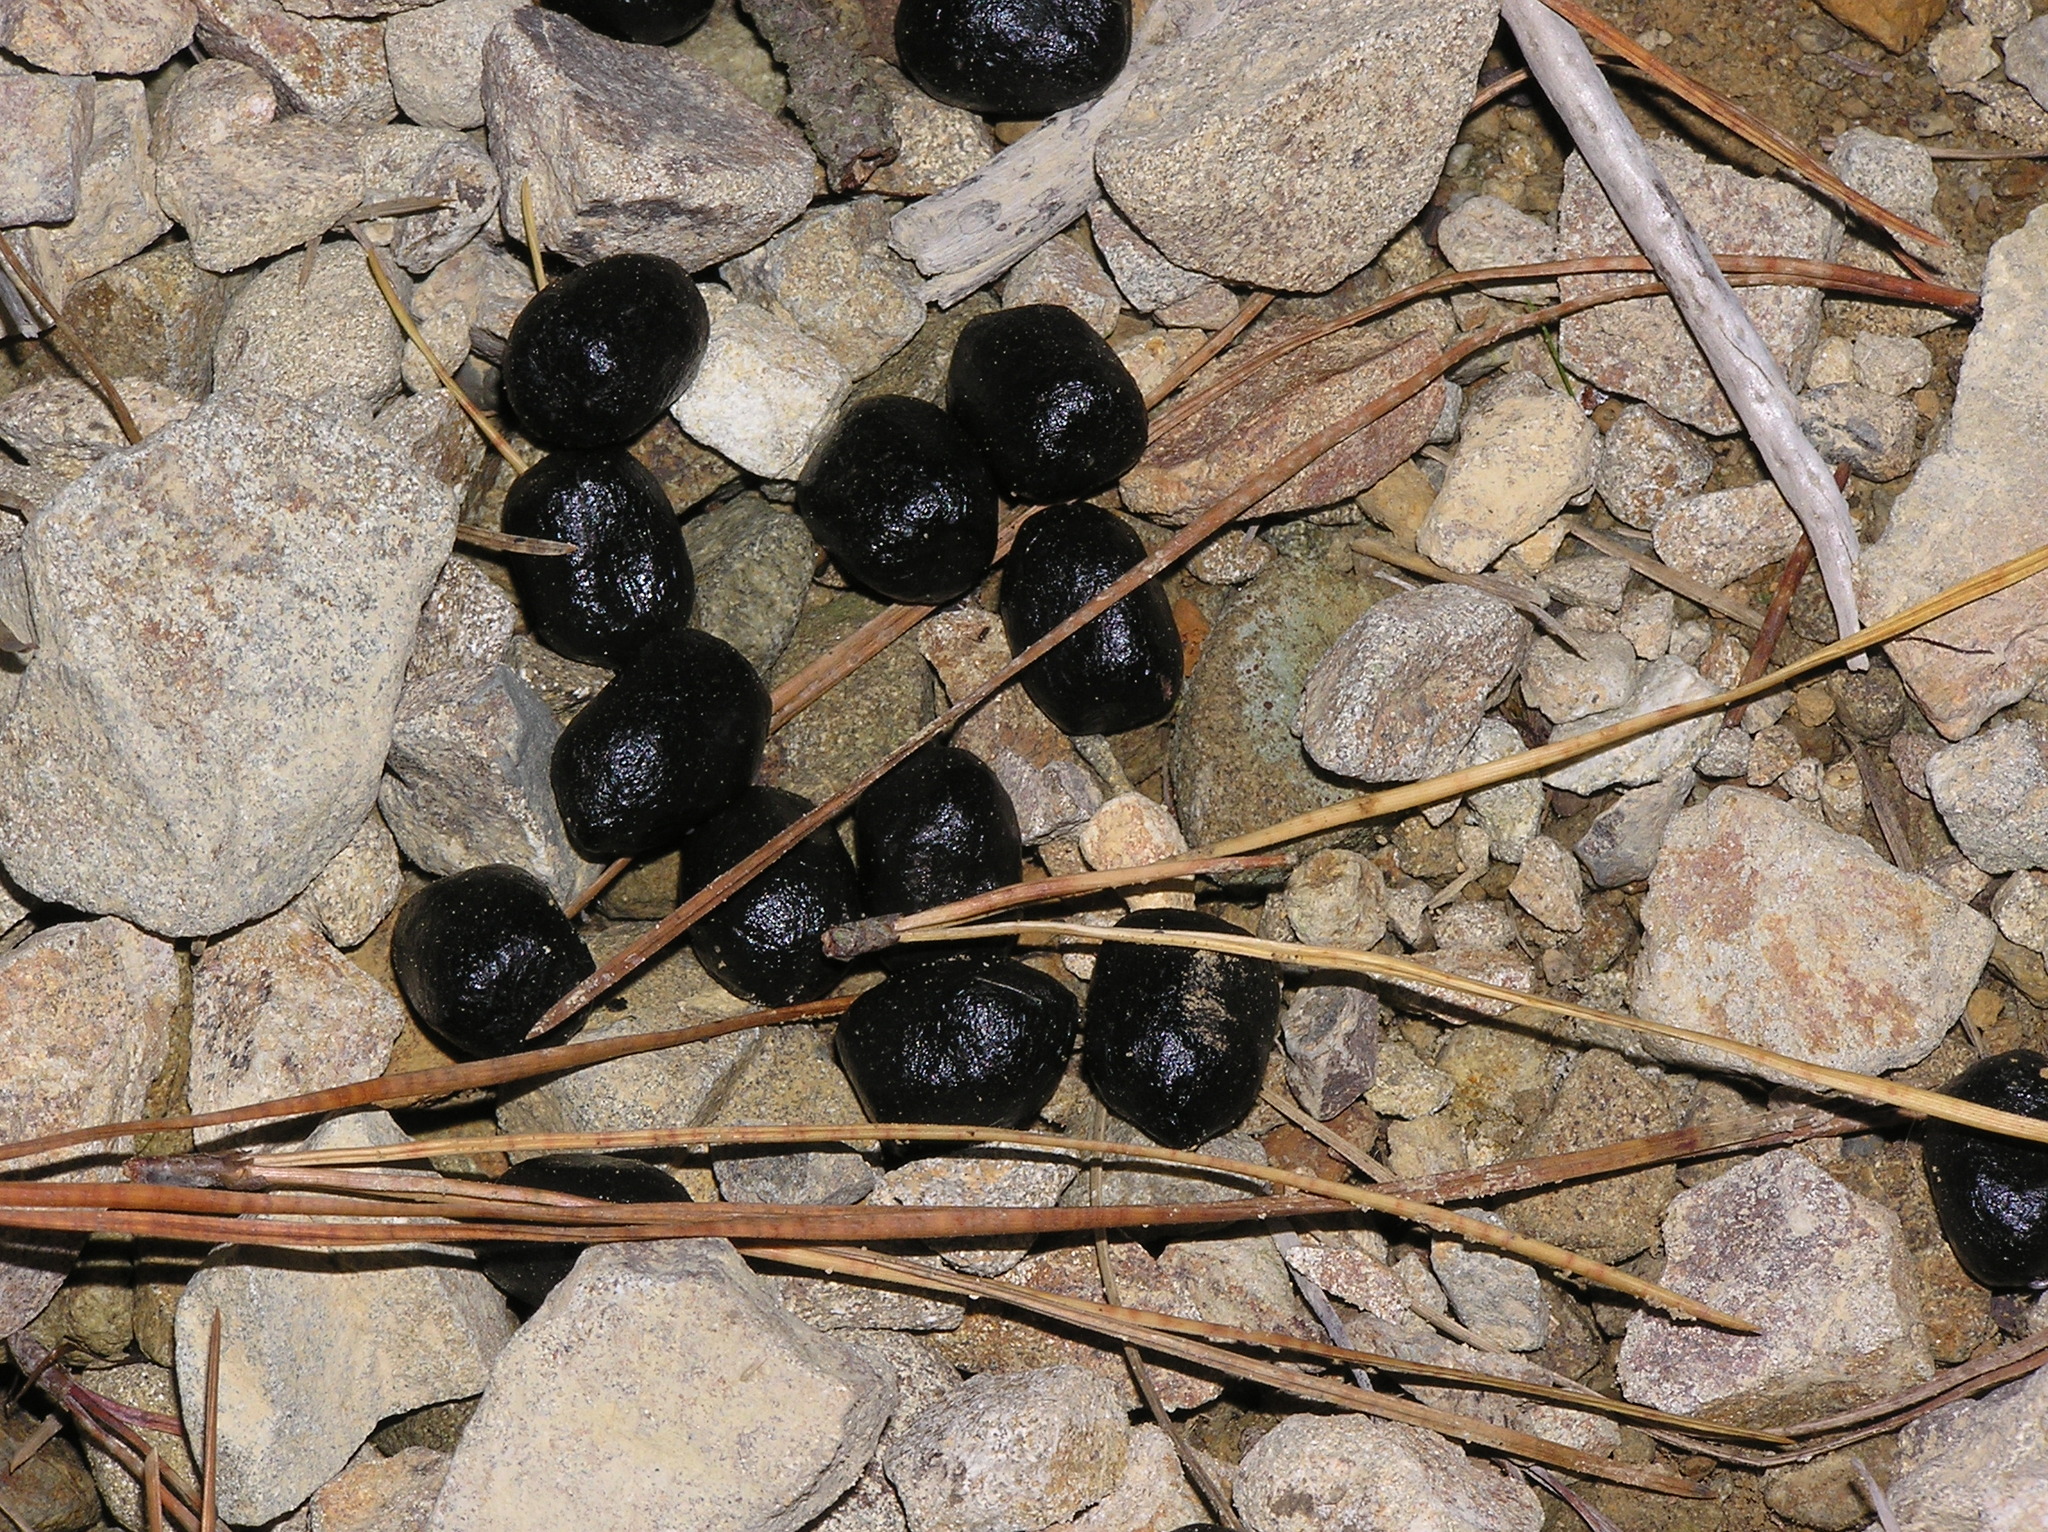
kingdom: Animalia
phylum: Chordata
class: Mammalia
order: Artiodactyla
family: Bovidae
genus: Capra
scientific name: Capra hircus
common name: Domestic goat
